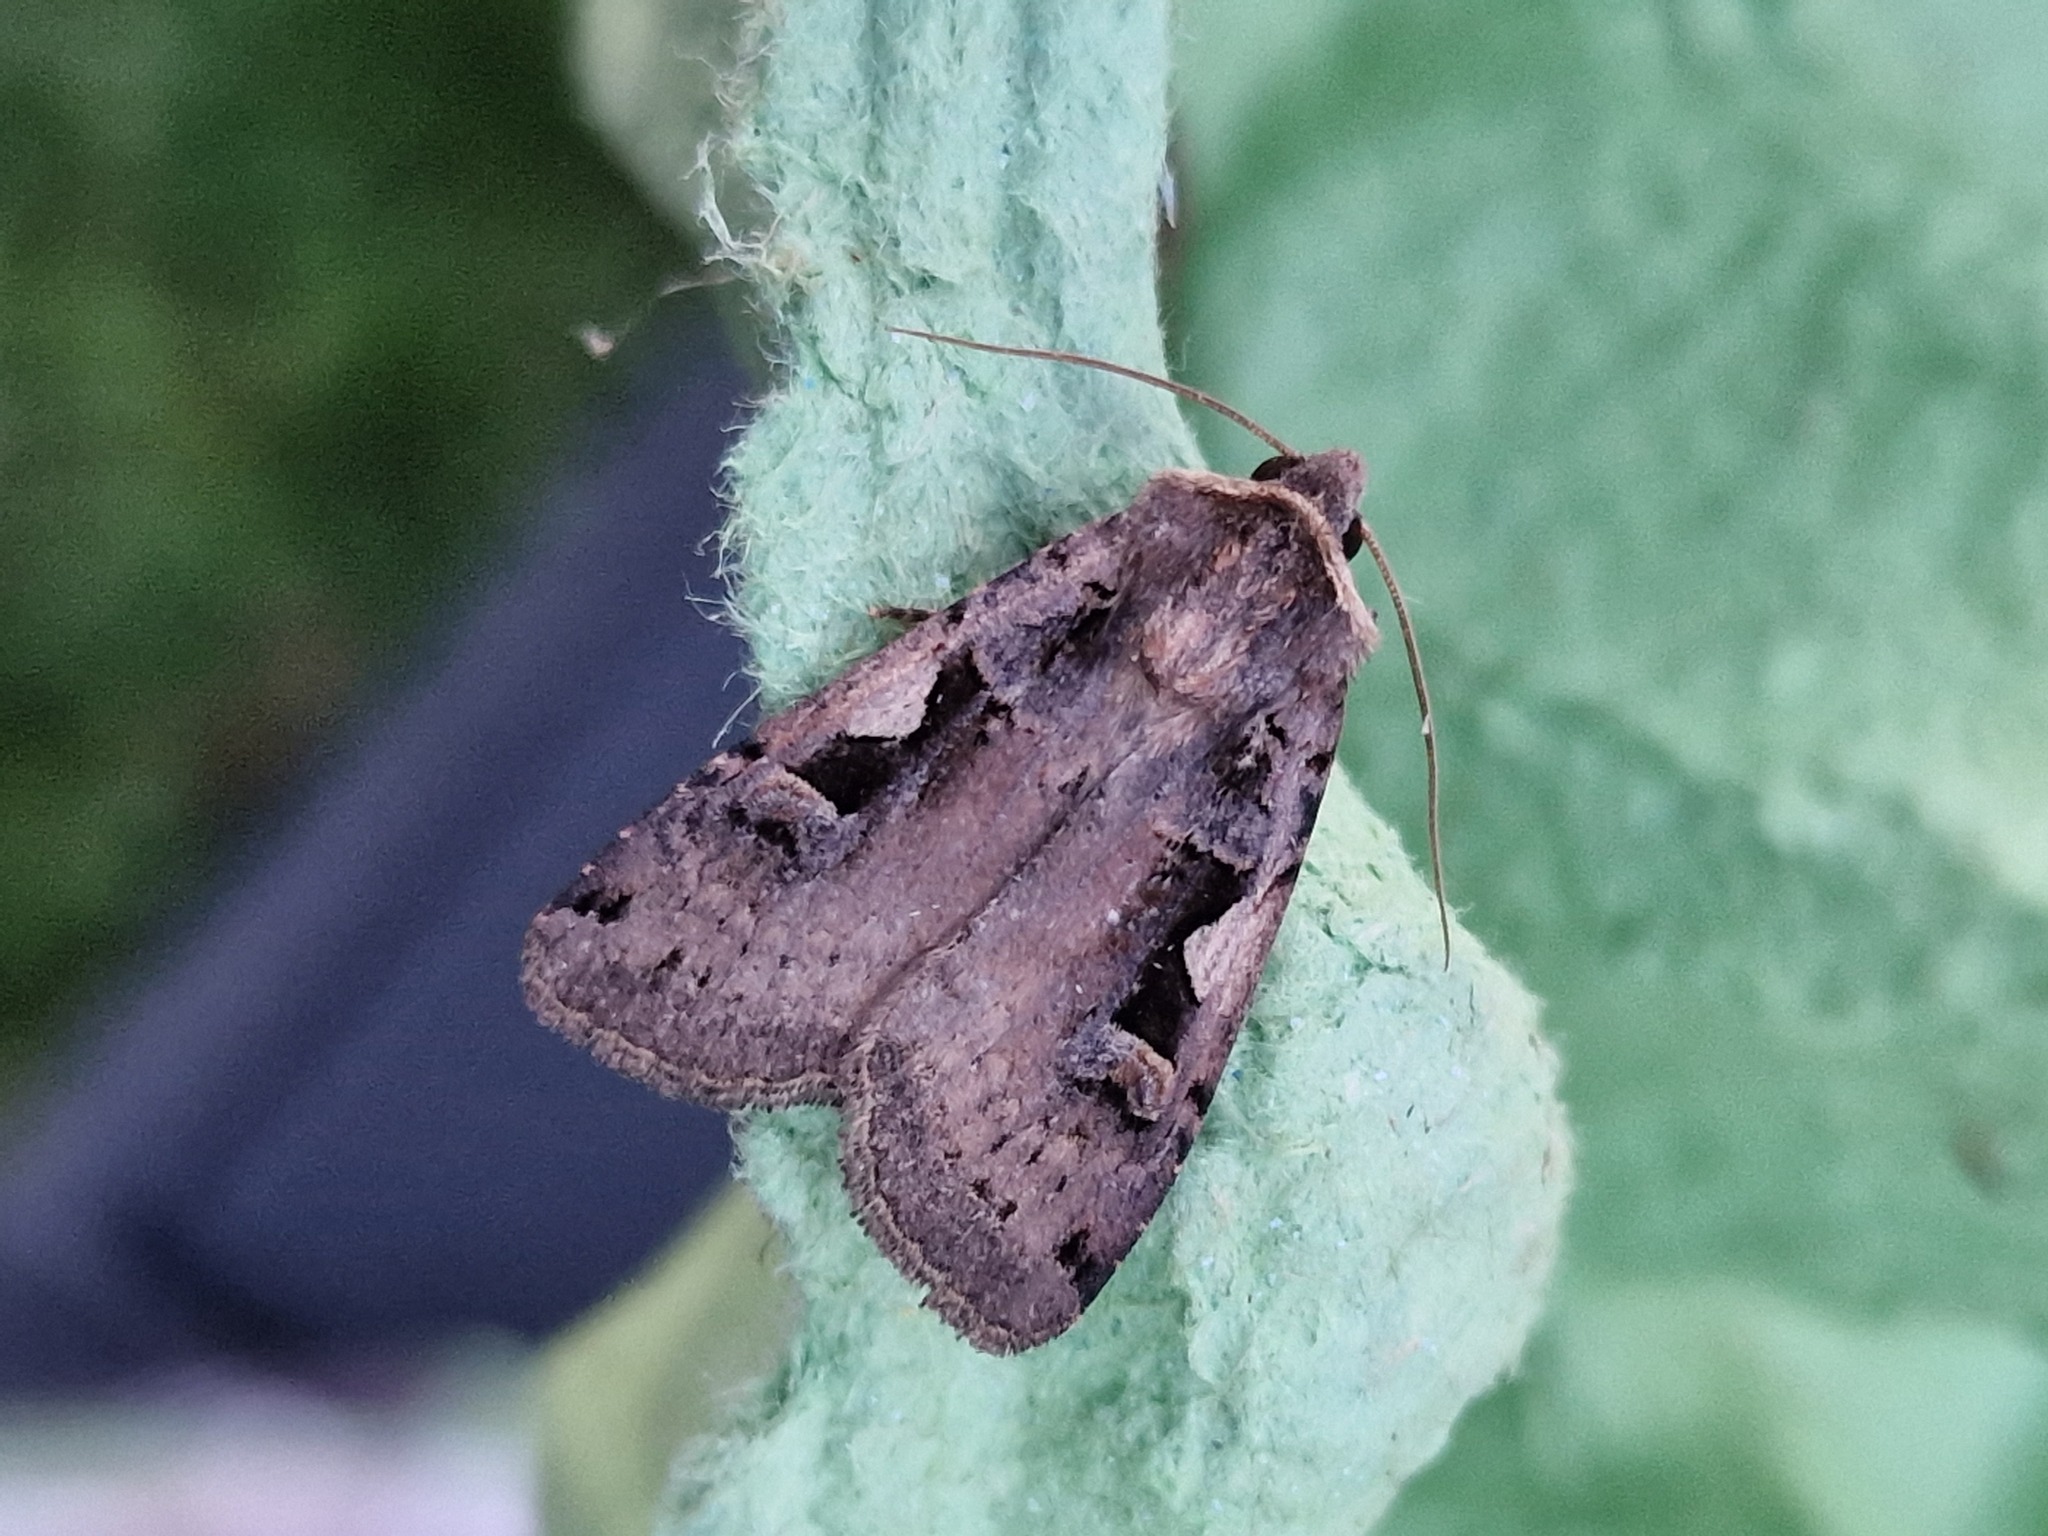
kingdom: Animalia
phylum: Arthropoda
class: Insecta
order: Lepidoptera
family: Noctuidae
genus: Xestia
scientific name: Xestia c-nigrum
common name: Setaceous hebrew character
